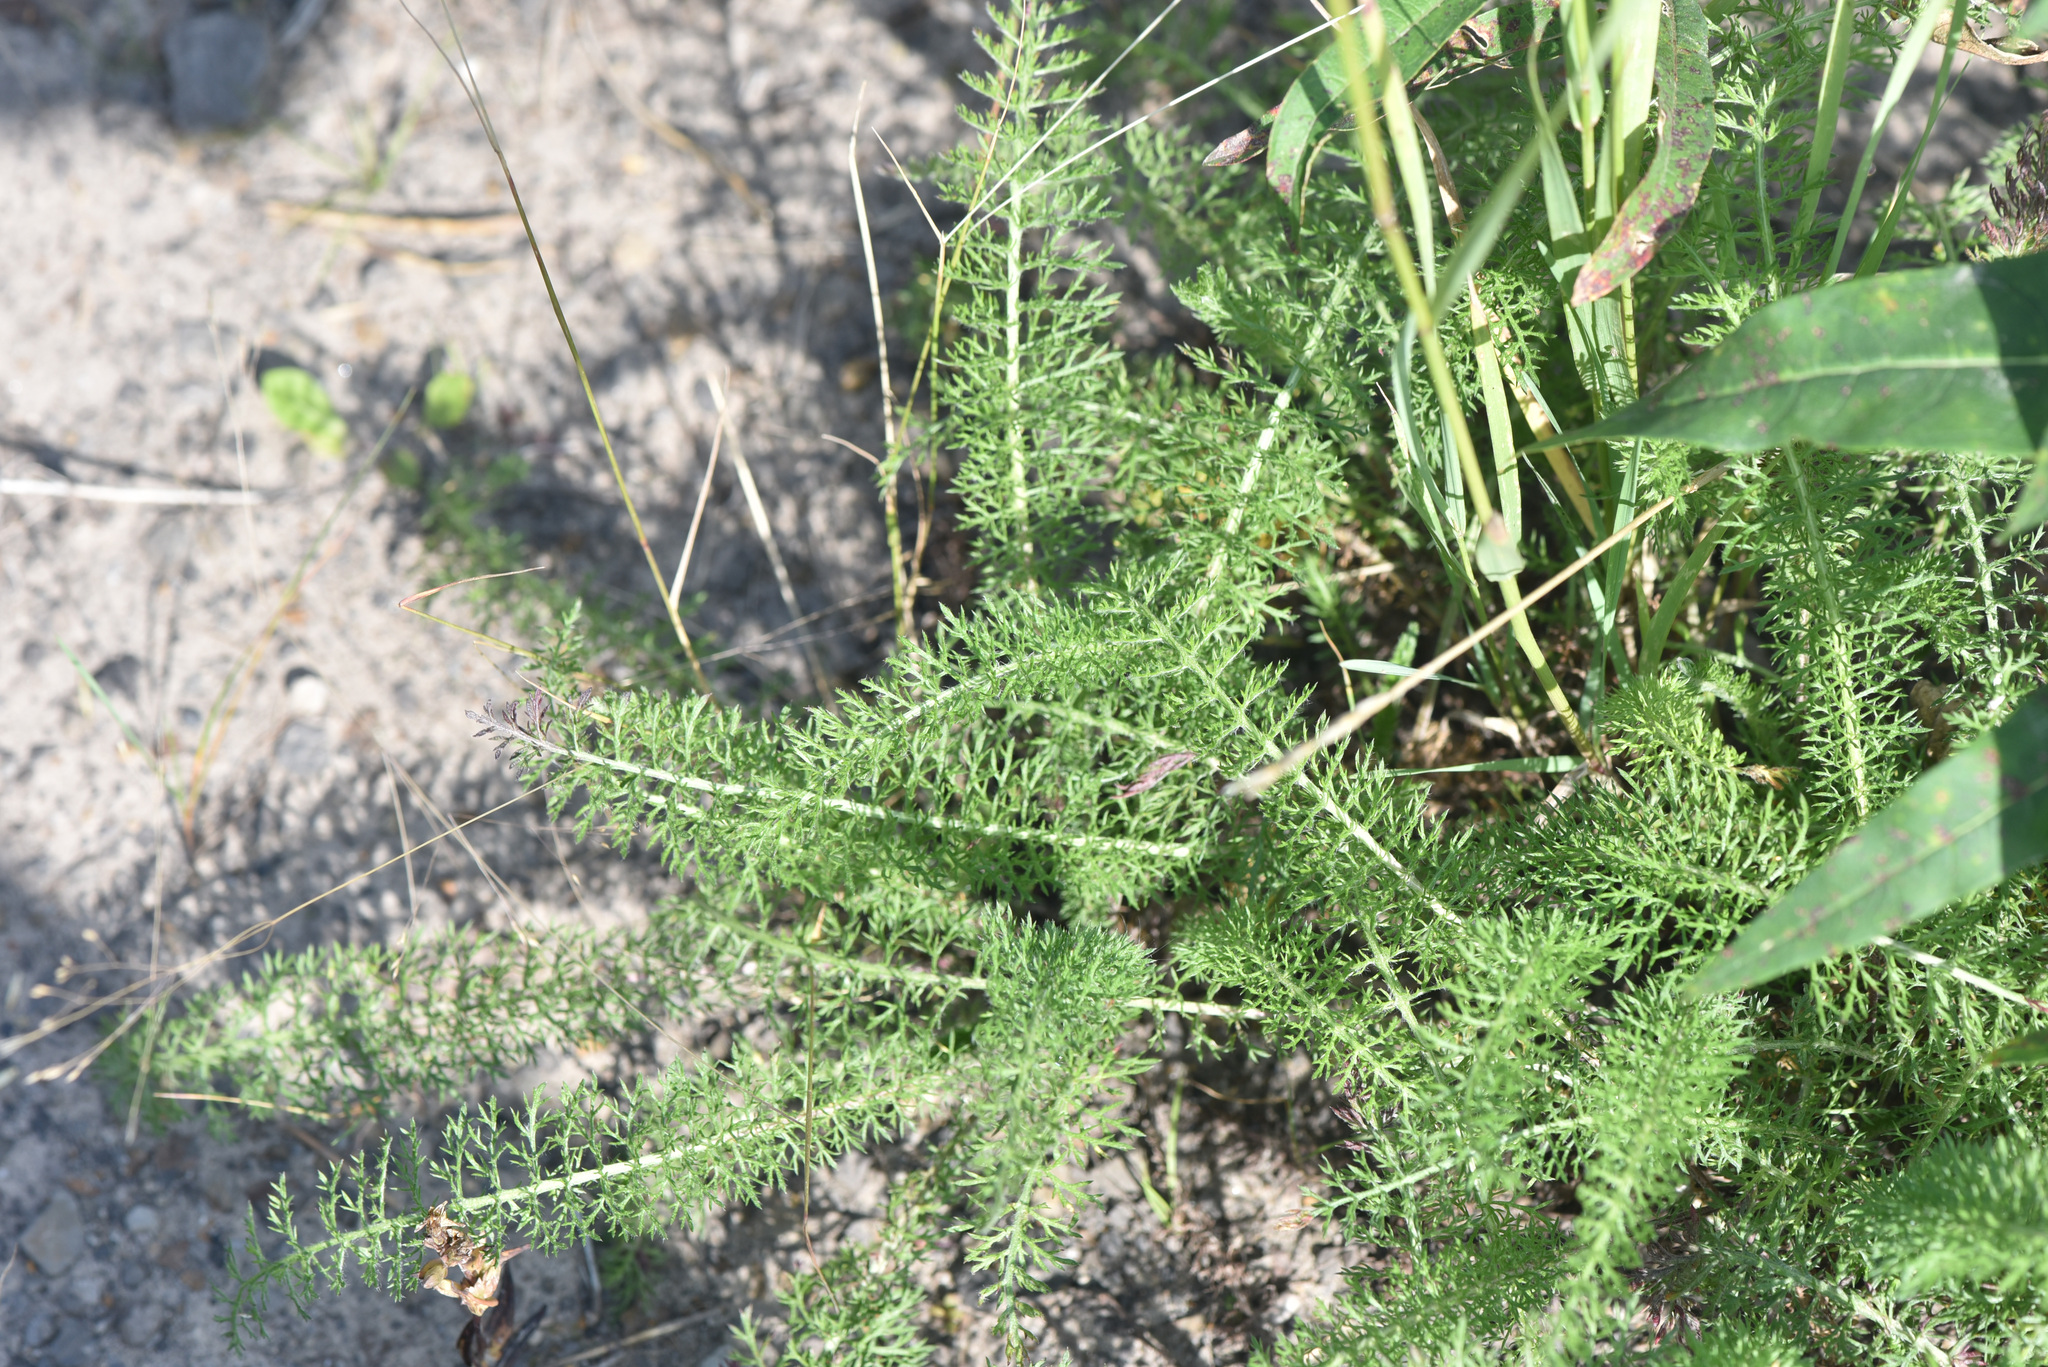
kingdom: Plantae
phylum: Tracheophyta
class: Magnoliopsida
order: Asterales
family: Asteraceae
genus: Achillea
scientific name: Achillea millefolium
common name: Yarrow
